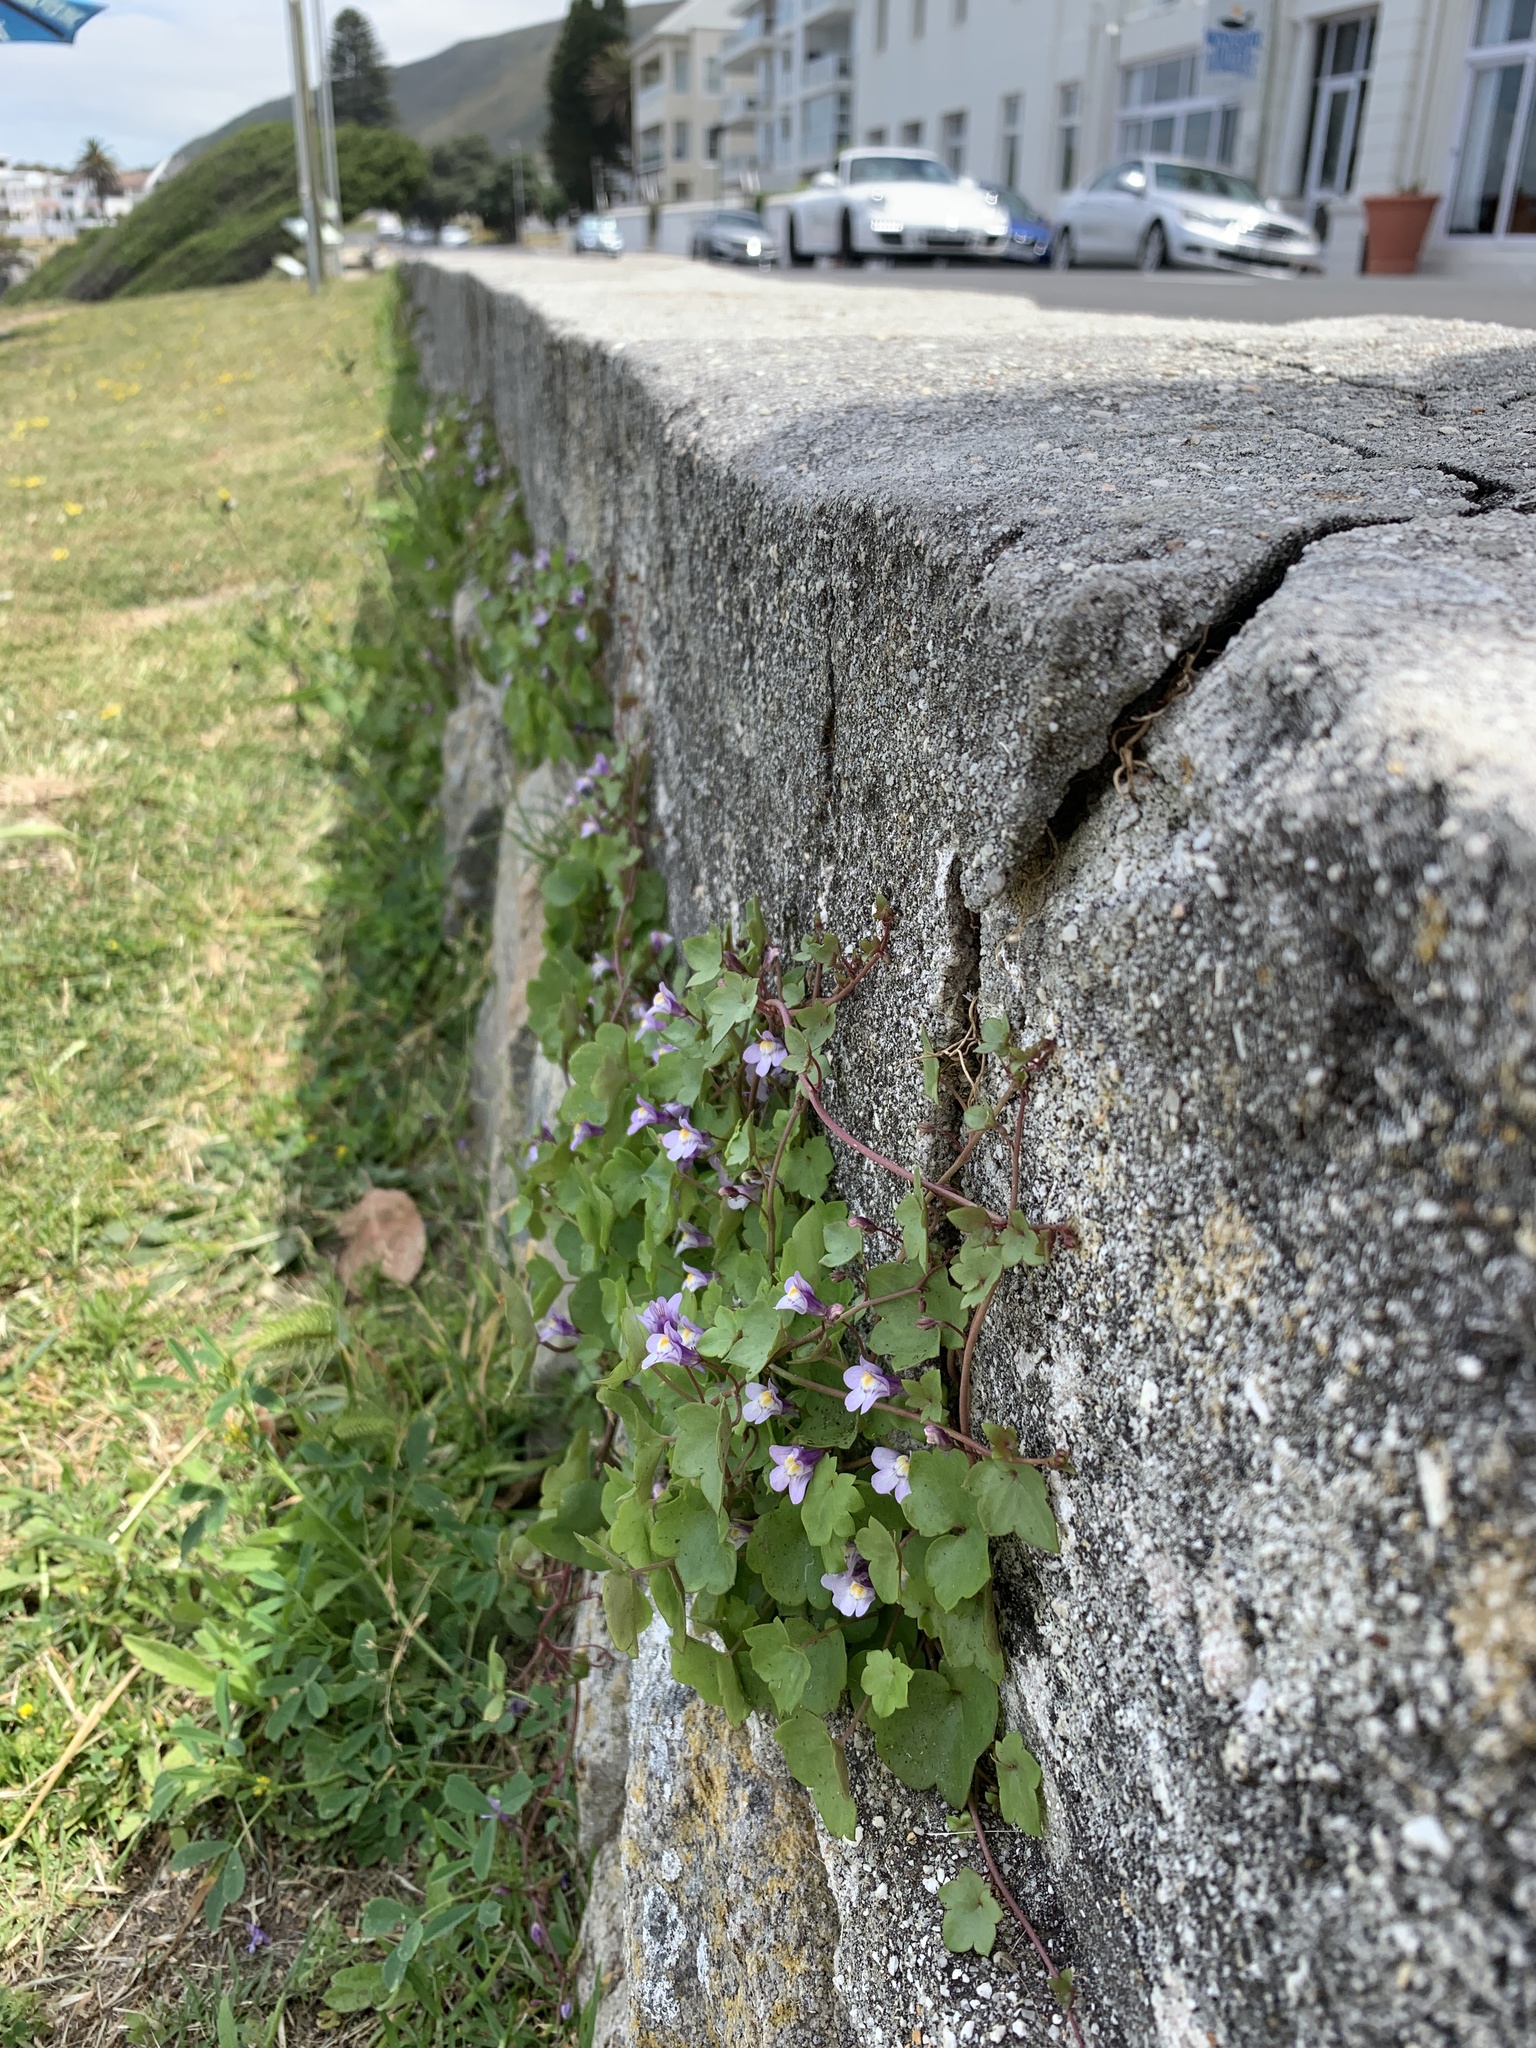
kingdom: Plantae
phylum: Tracheophyta
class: Magnoliopsida
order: Lamiales
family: Plantaginaceae
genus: Cymbalaria
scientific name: Cymbalaria muralis
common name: Ivy-leaved toadflax
